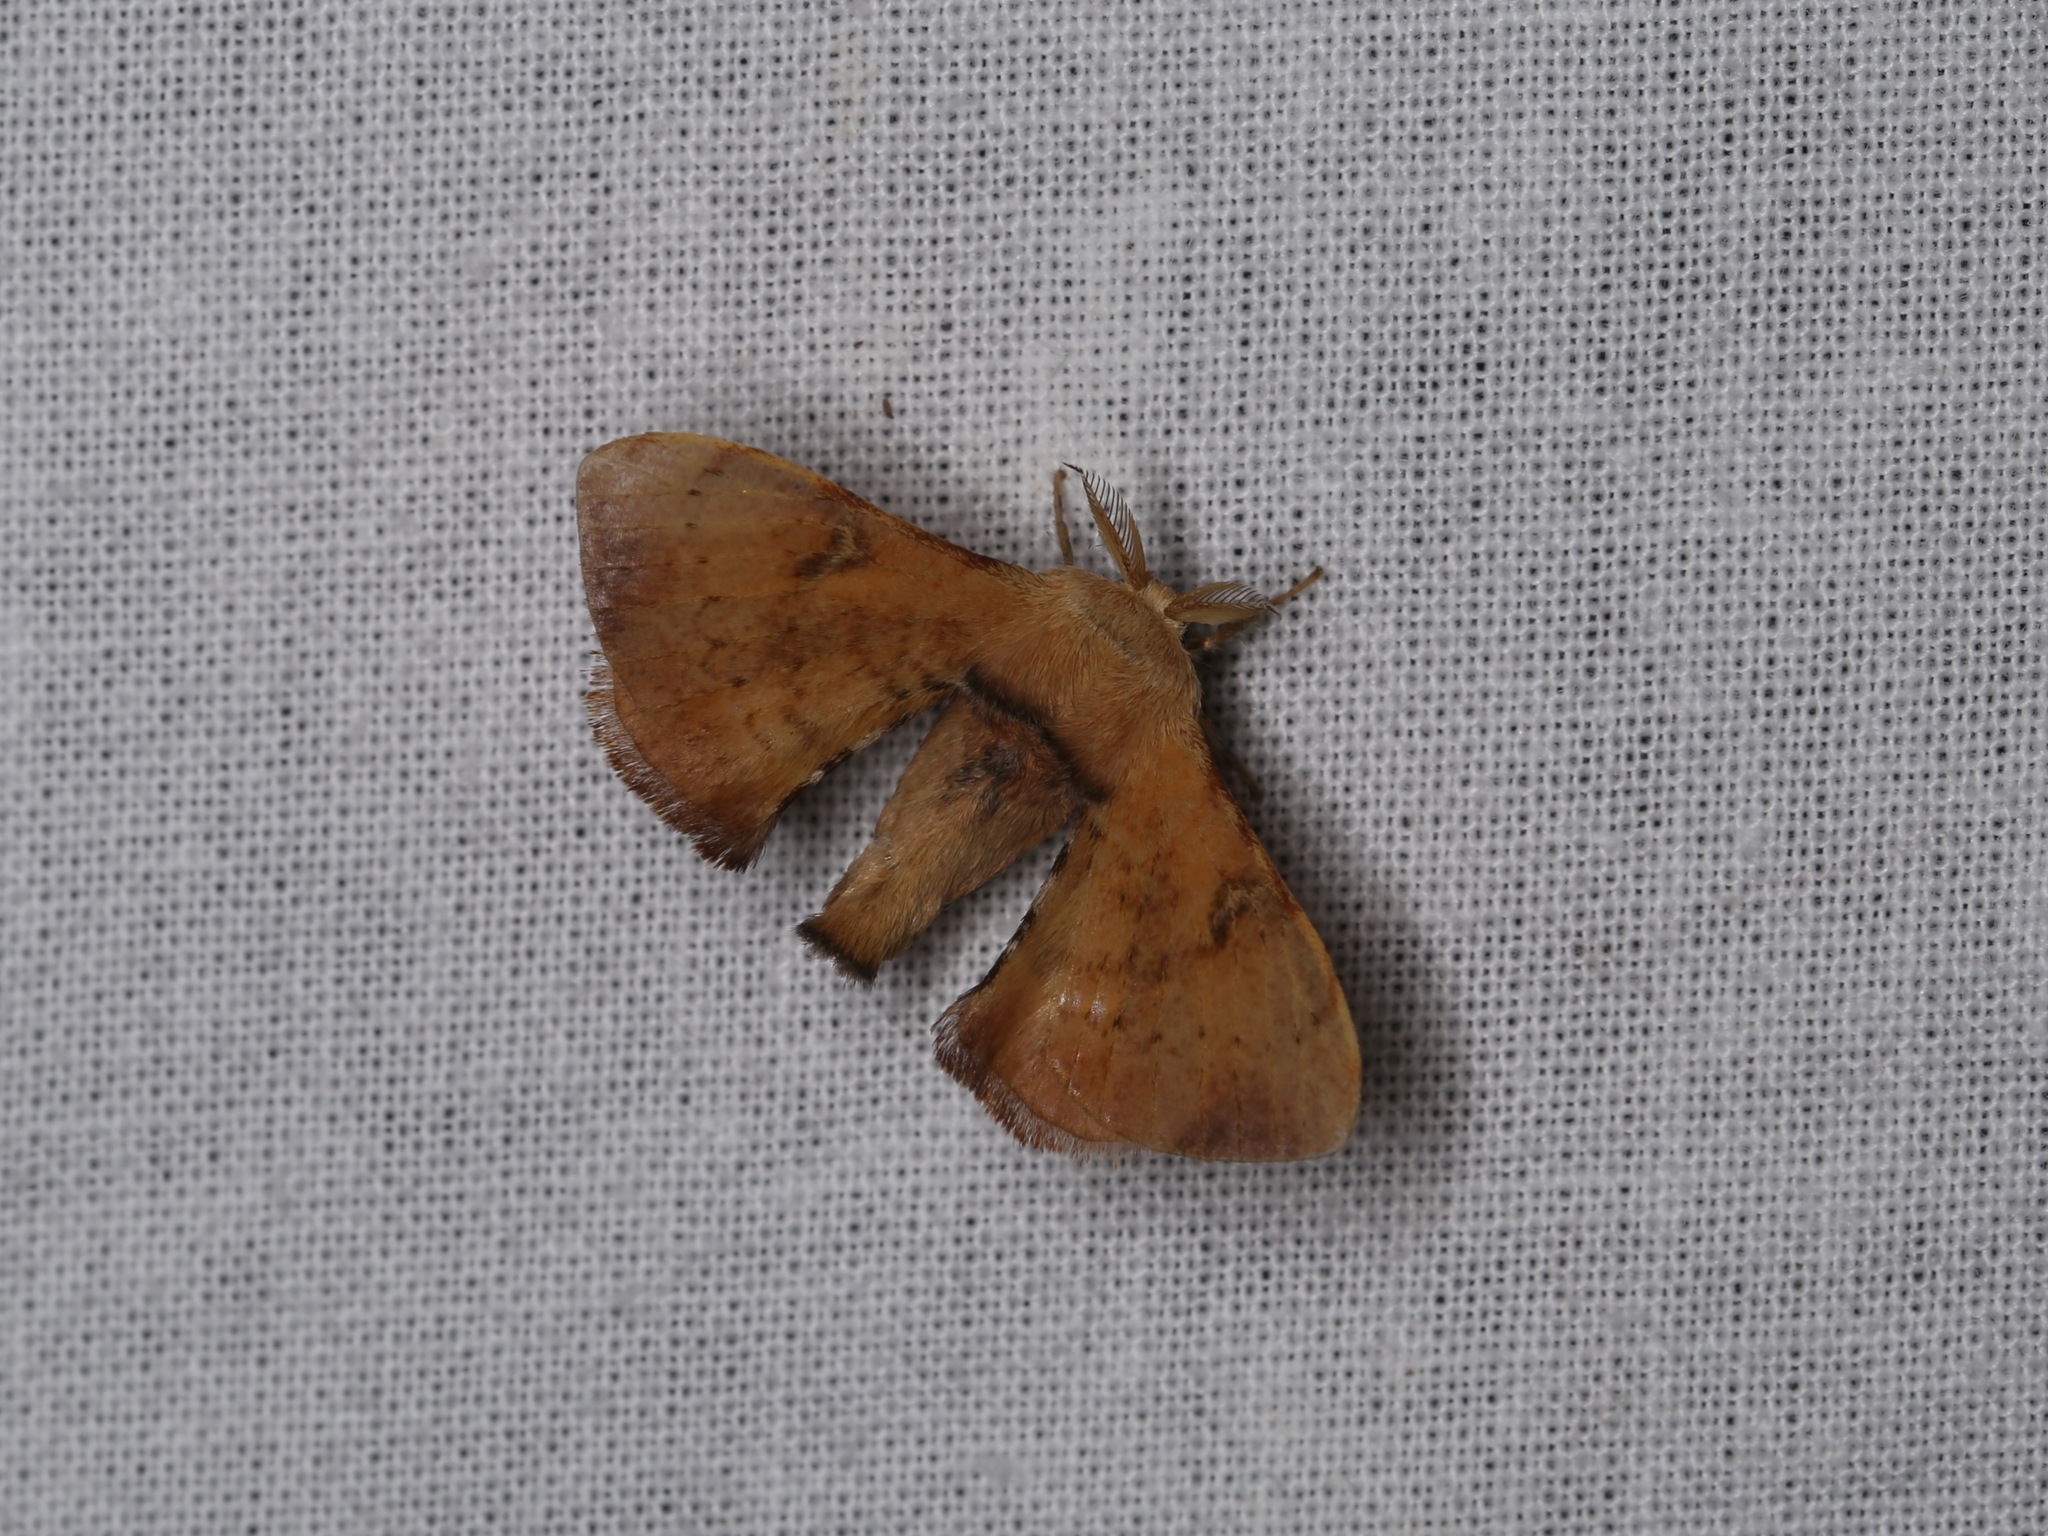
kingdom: Animalia
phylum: Arthropoda
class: Insecta
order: Lepidoptera
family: Bombycidae
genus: Trilocha
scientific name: Trilocha varians
